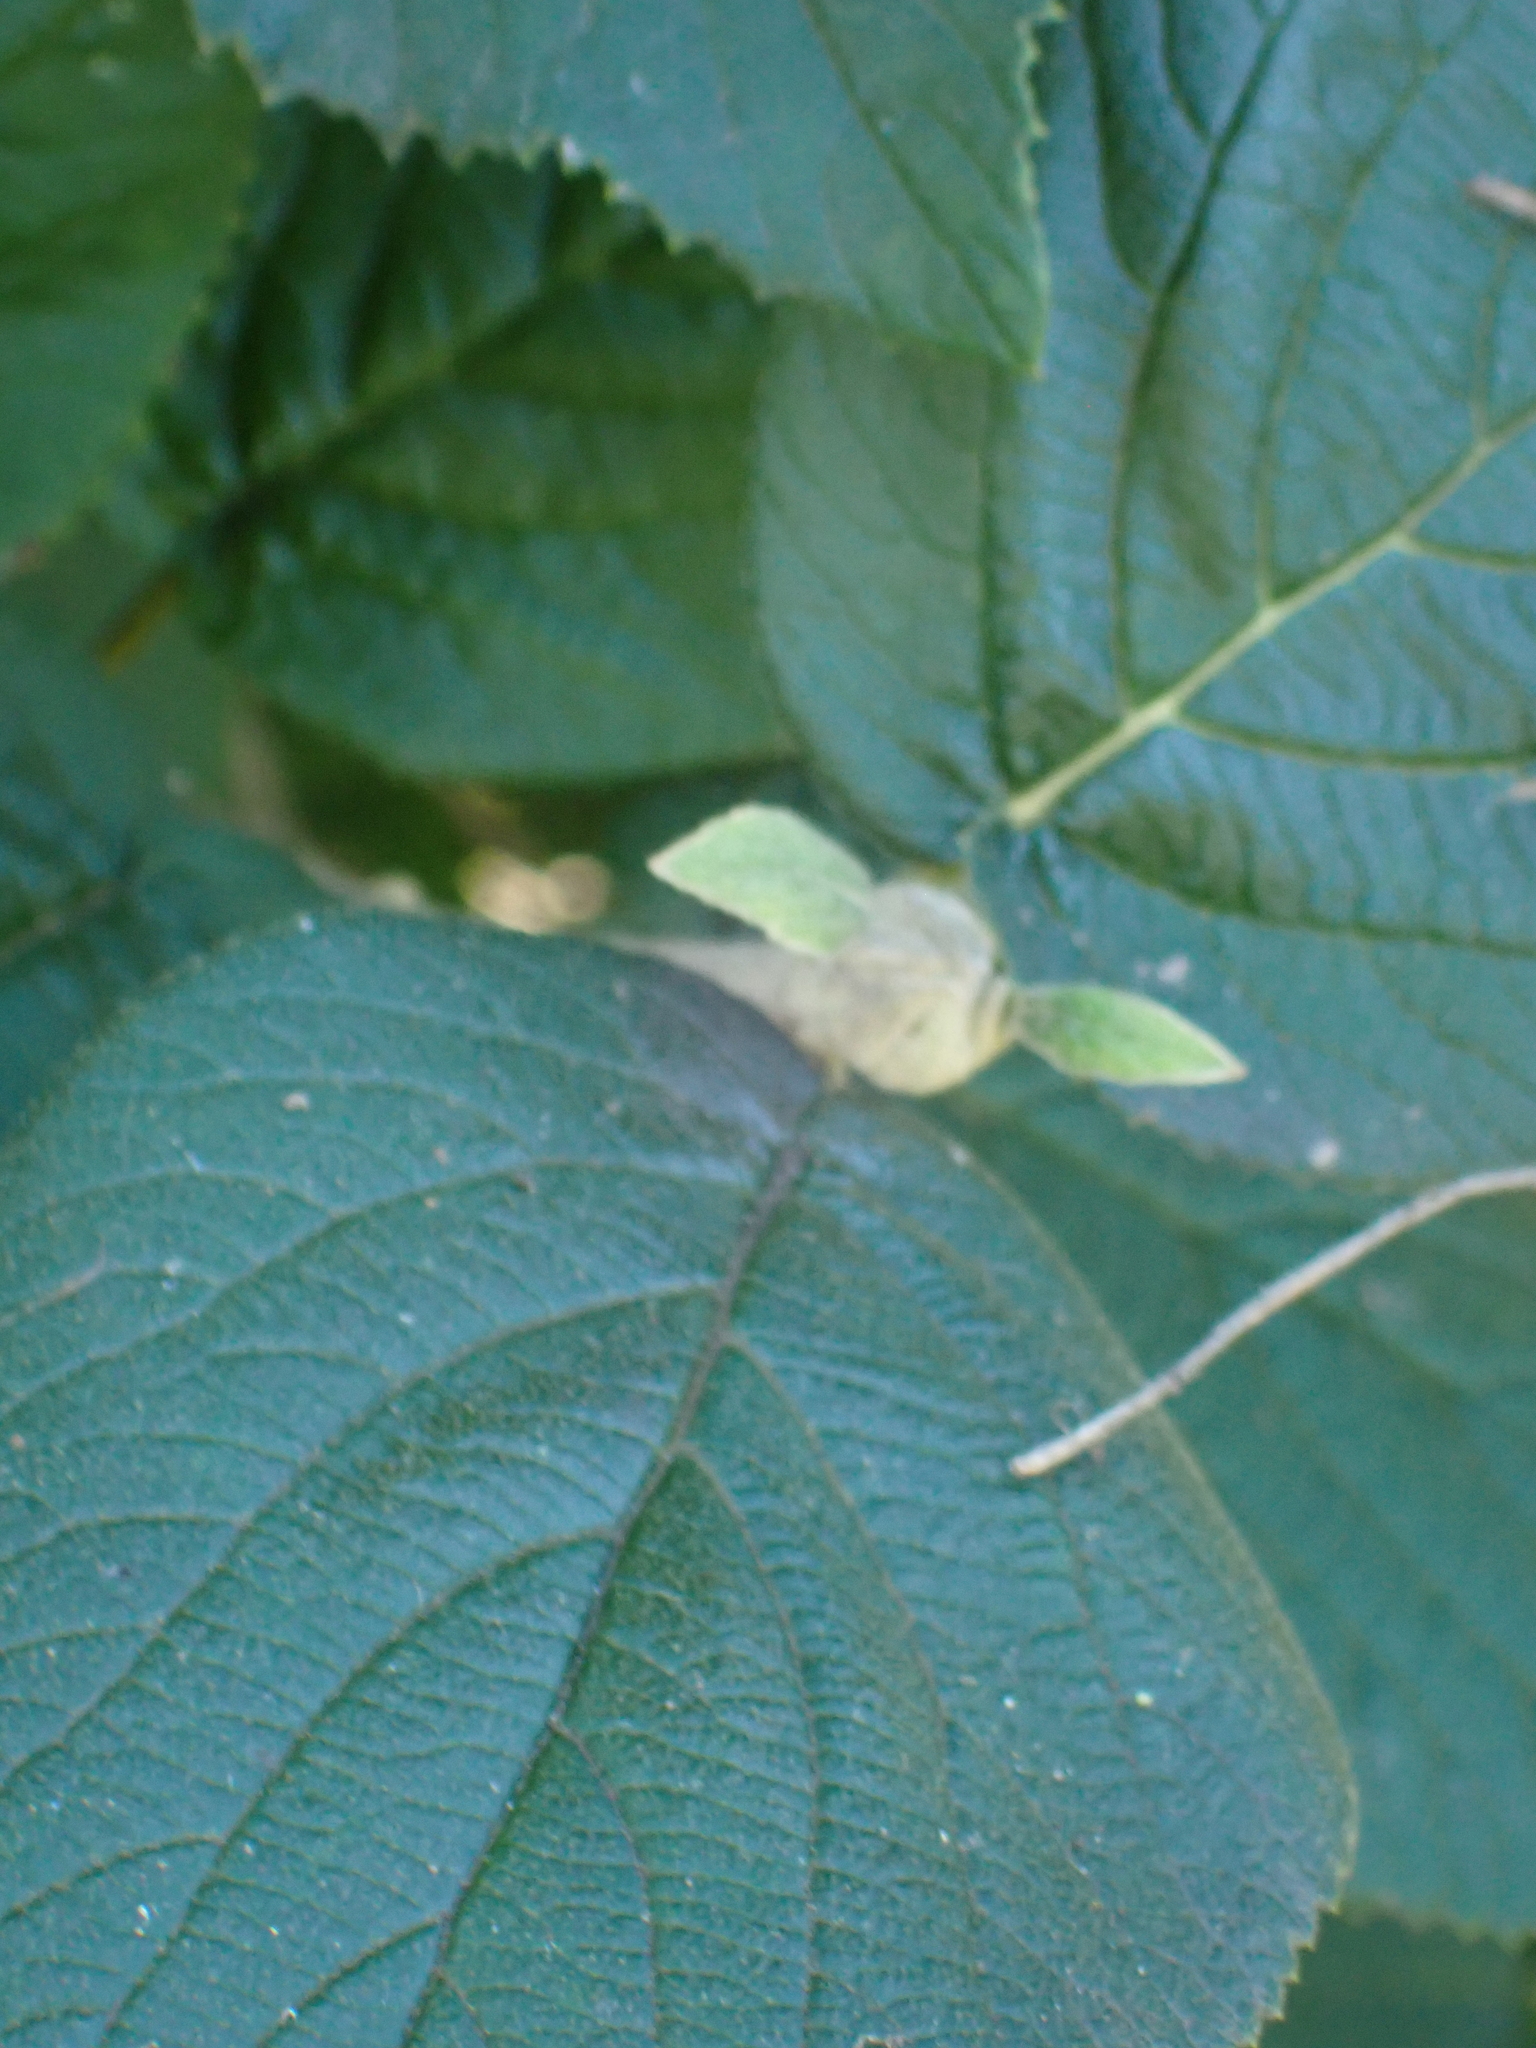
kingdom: Plantae
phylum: Tracheophyta
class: Magnoliopsida
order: Dipsacales
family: Viburnaceae
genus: Viburnum
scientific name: Viburnum lantana
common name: Wayfaring tree
